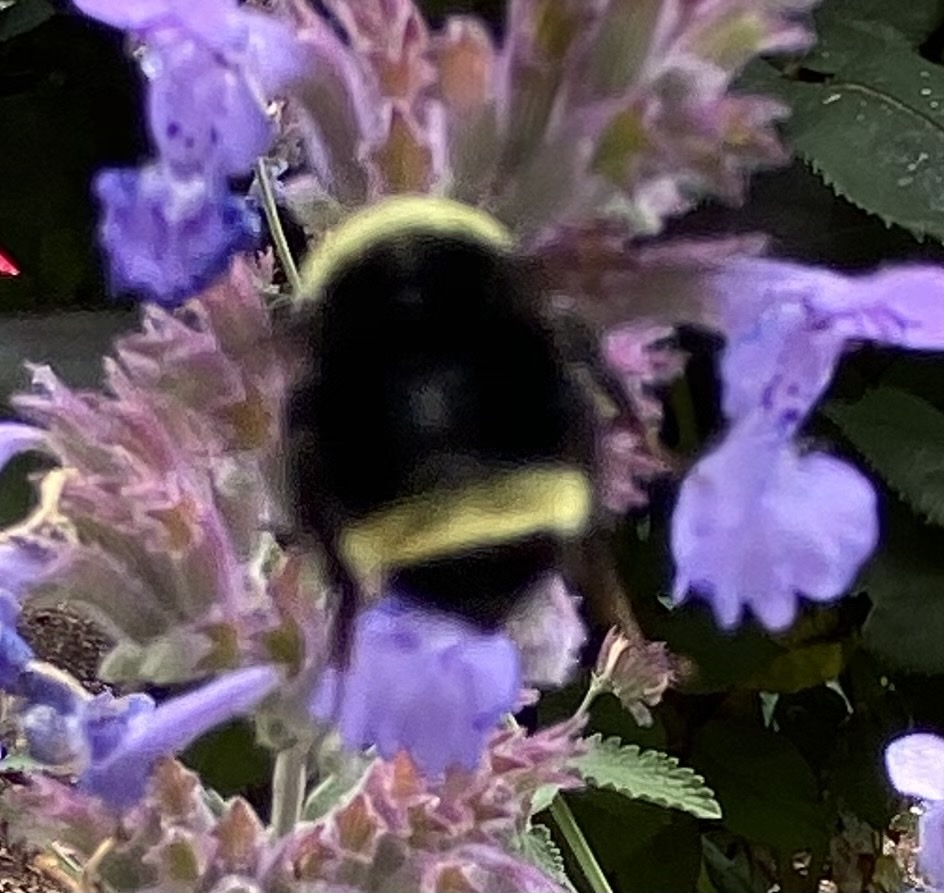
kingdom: Animalia
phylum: Arthropoda
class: Insecta
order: Hymenoptera
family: Apidae
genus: Pyrobombus
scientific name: Pyrobombus
